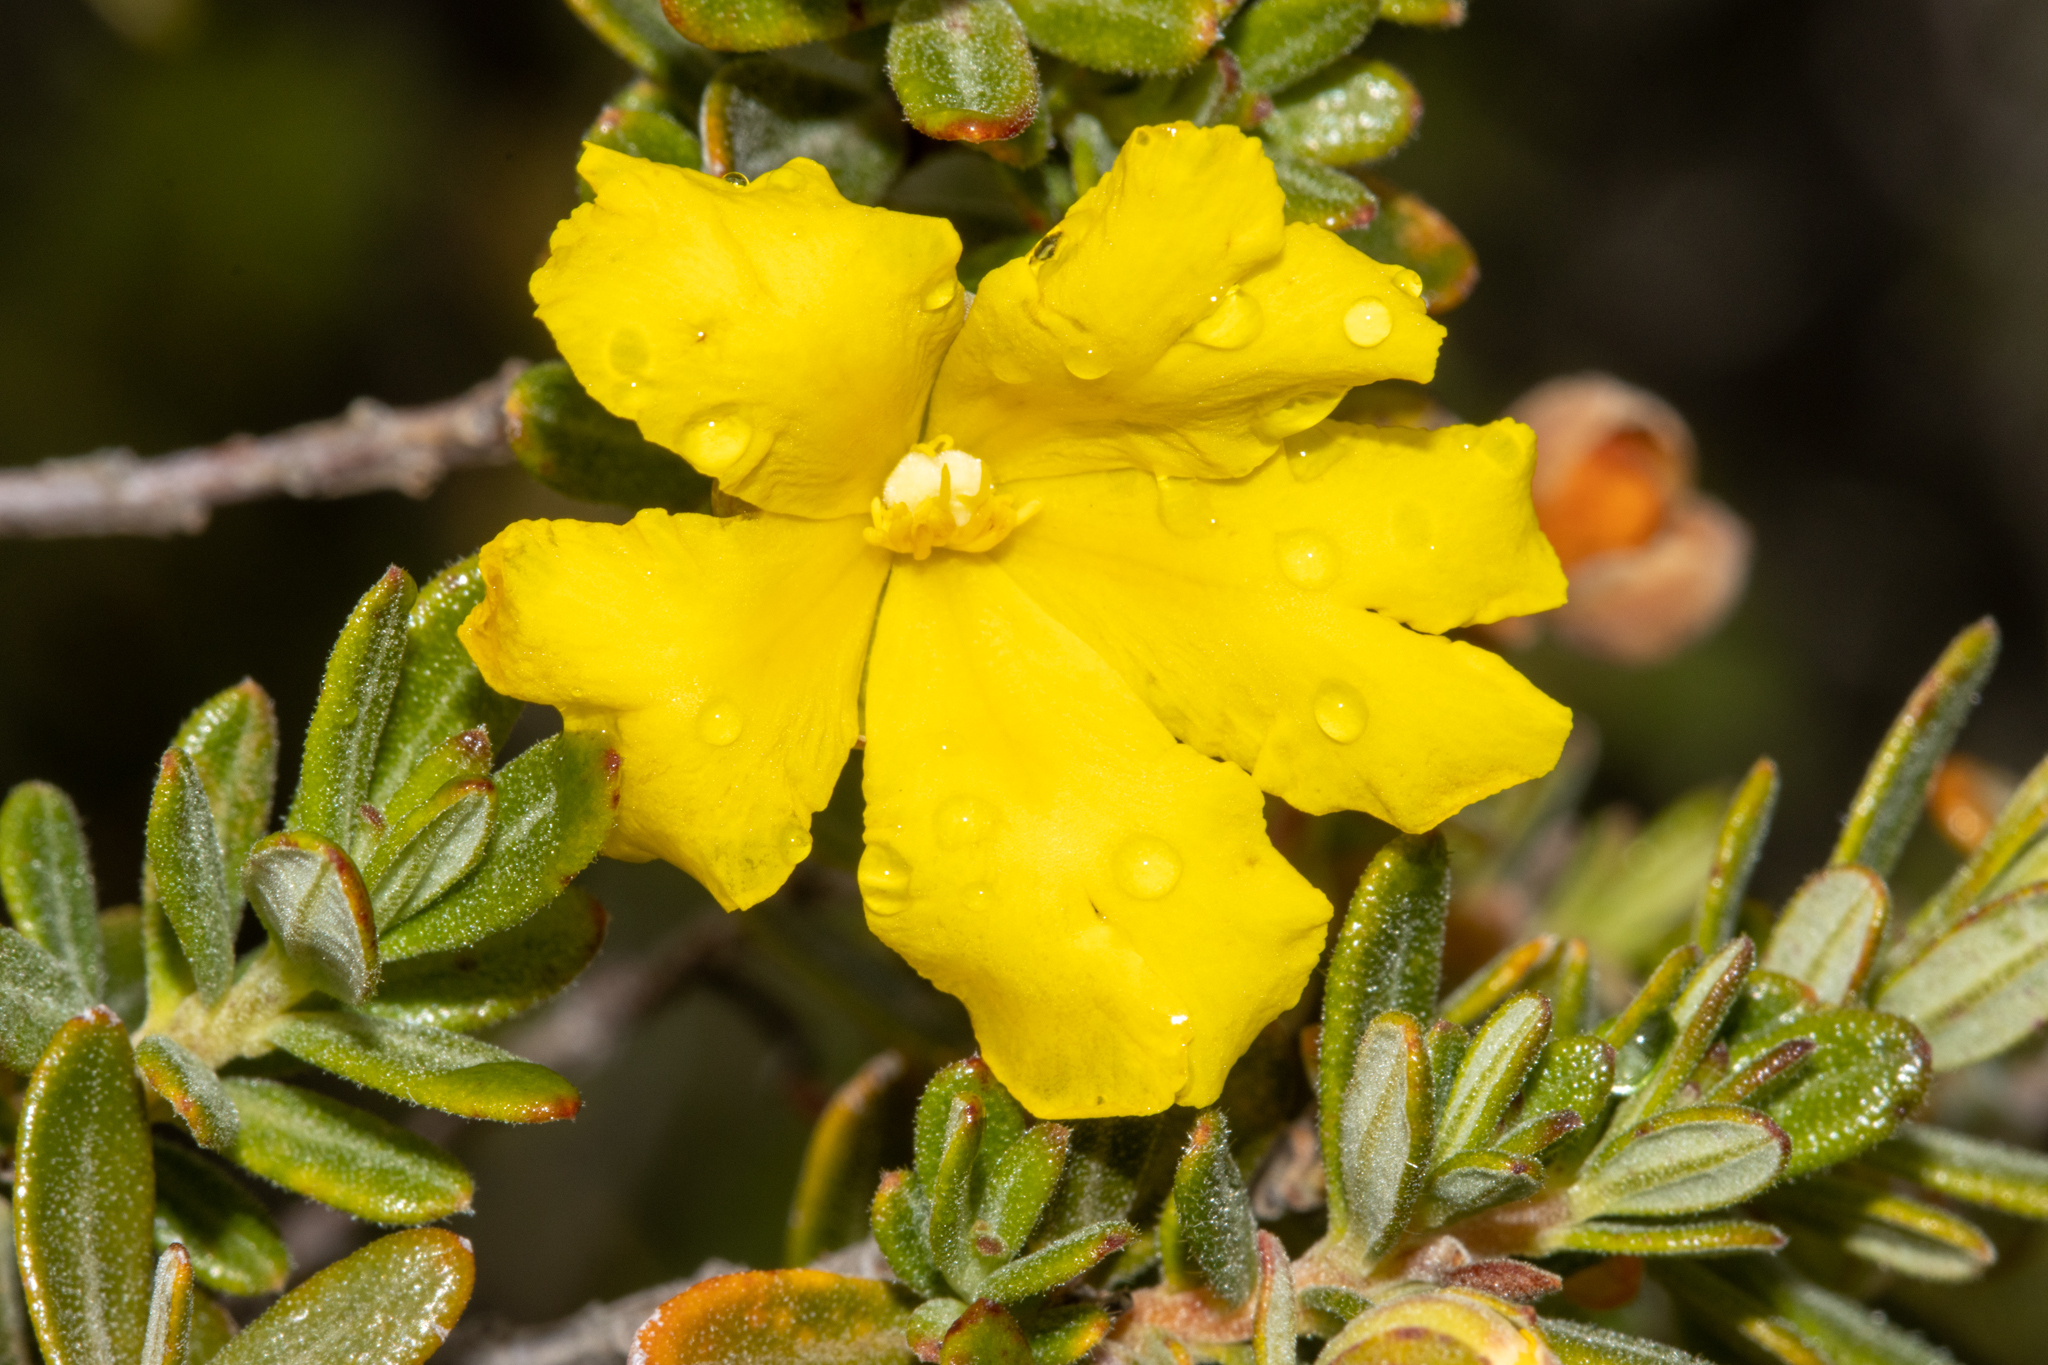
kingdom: Plantae
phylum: Tracheophyta
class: Magnoliopsida
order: Dilleniales
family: Dilleniaceae
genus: Hibbertia
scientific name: Hibbertia hypericoides
